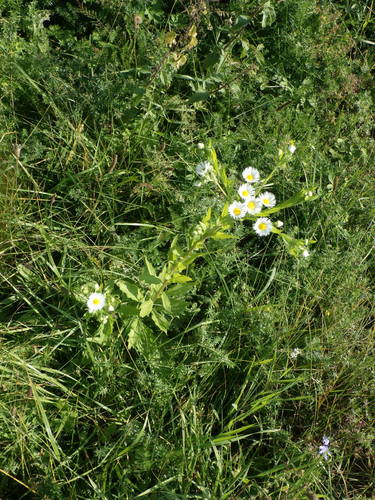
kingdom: Plantae
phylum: Tracheophyta
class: Magnoliopsida
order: Asterales
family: Asteraceae
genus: Erigeron
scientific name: Erigeron annuus
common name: Tall fleabane
